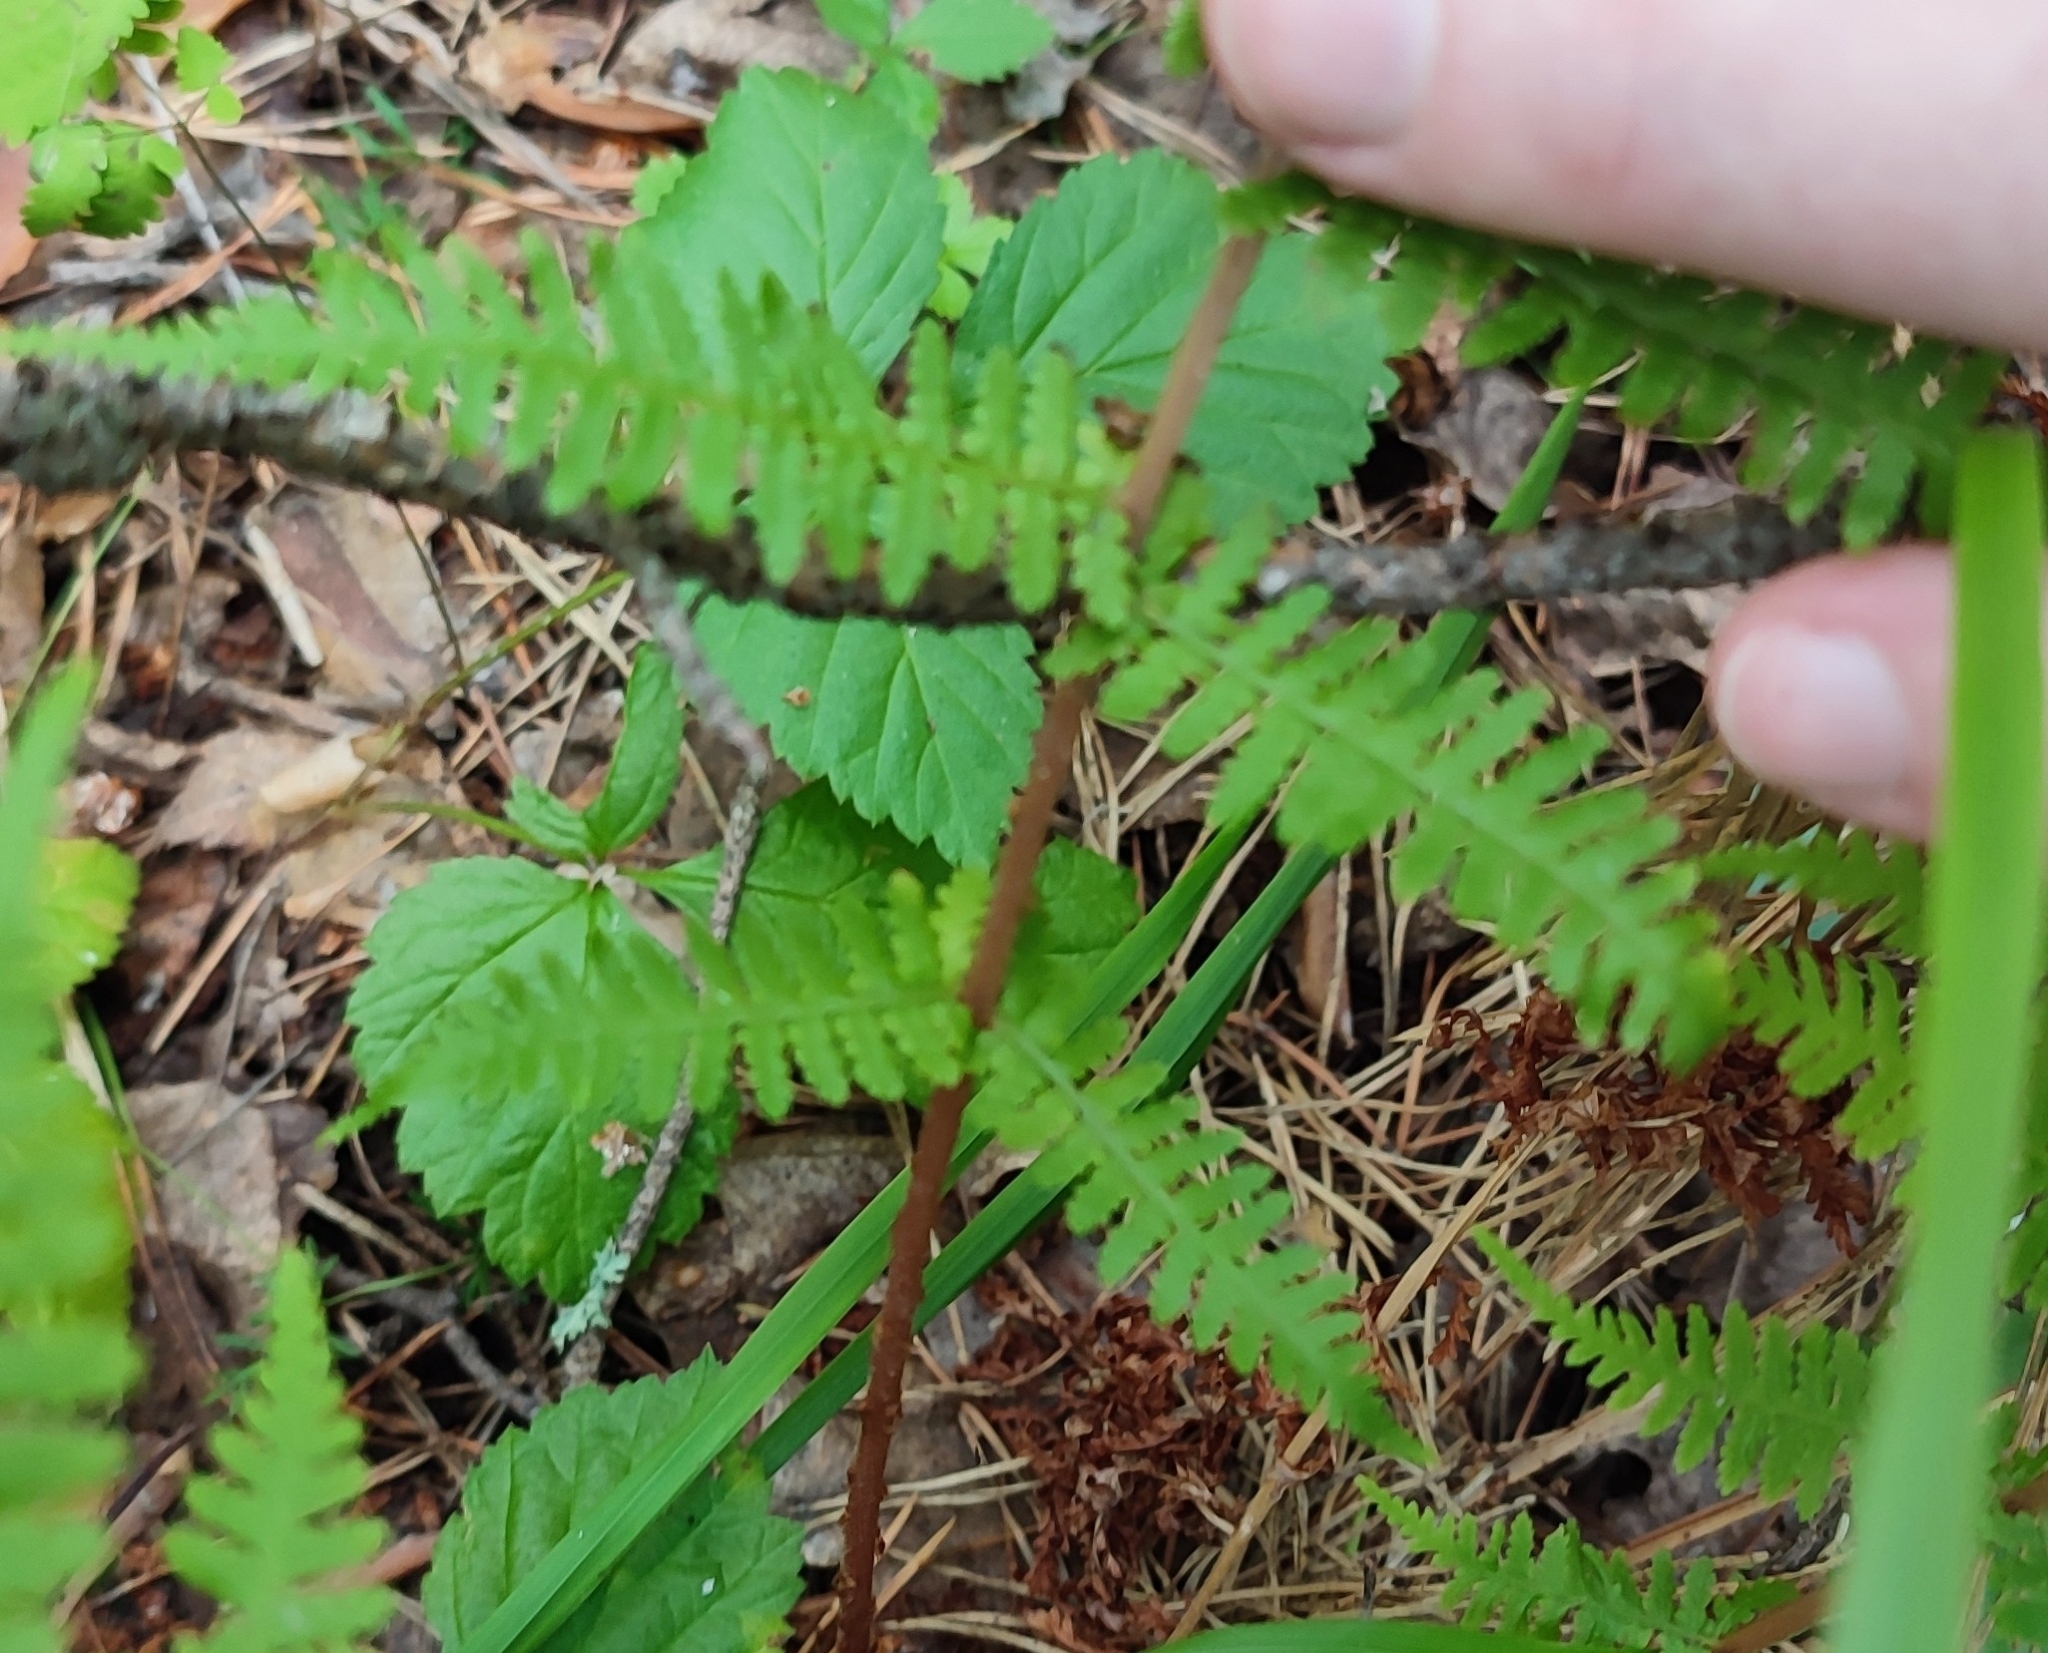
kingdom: Plantae
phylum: Tracheophyta
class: Polypodiopsida
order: Polypodiales
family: Athyriaceae
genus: Athyrium
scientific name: Athyrium filix-femina
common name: Lady fern
